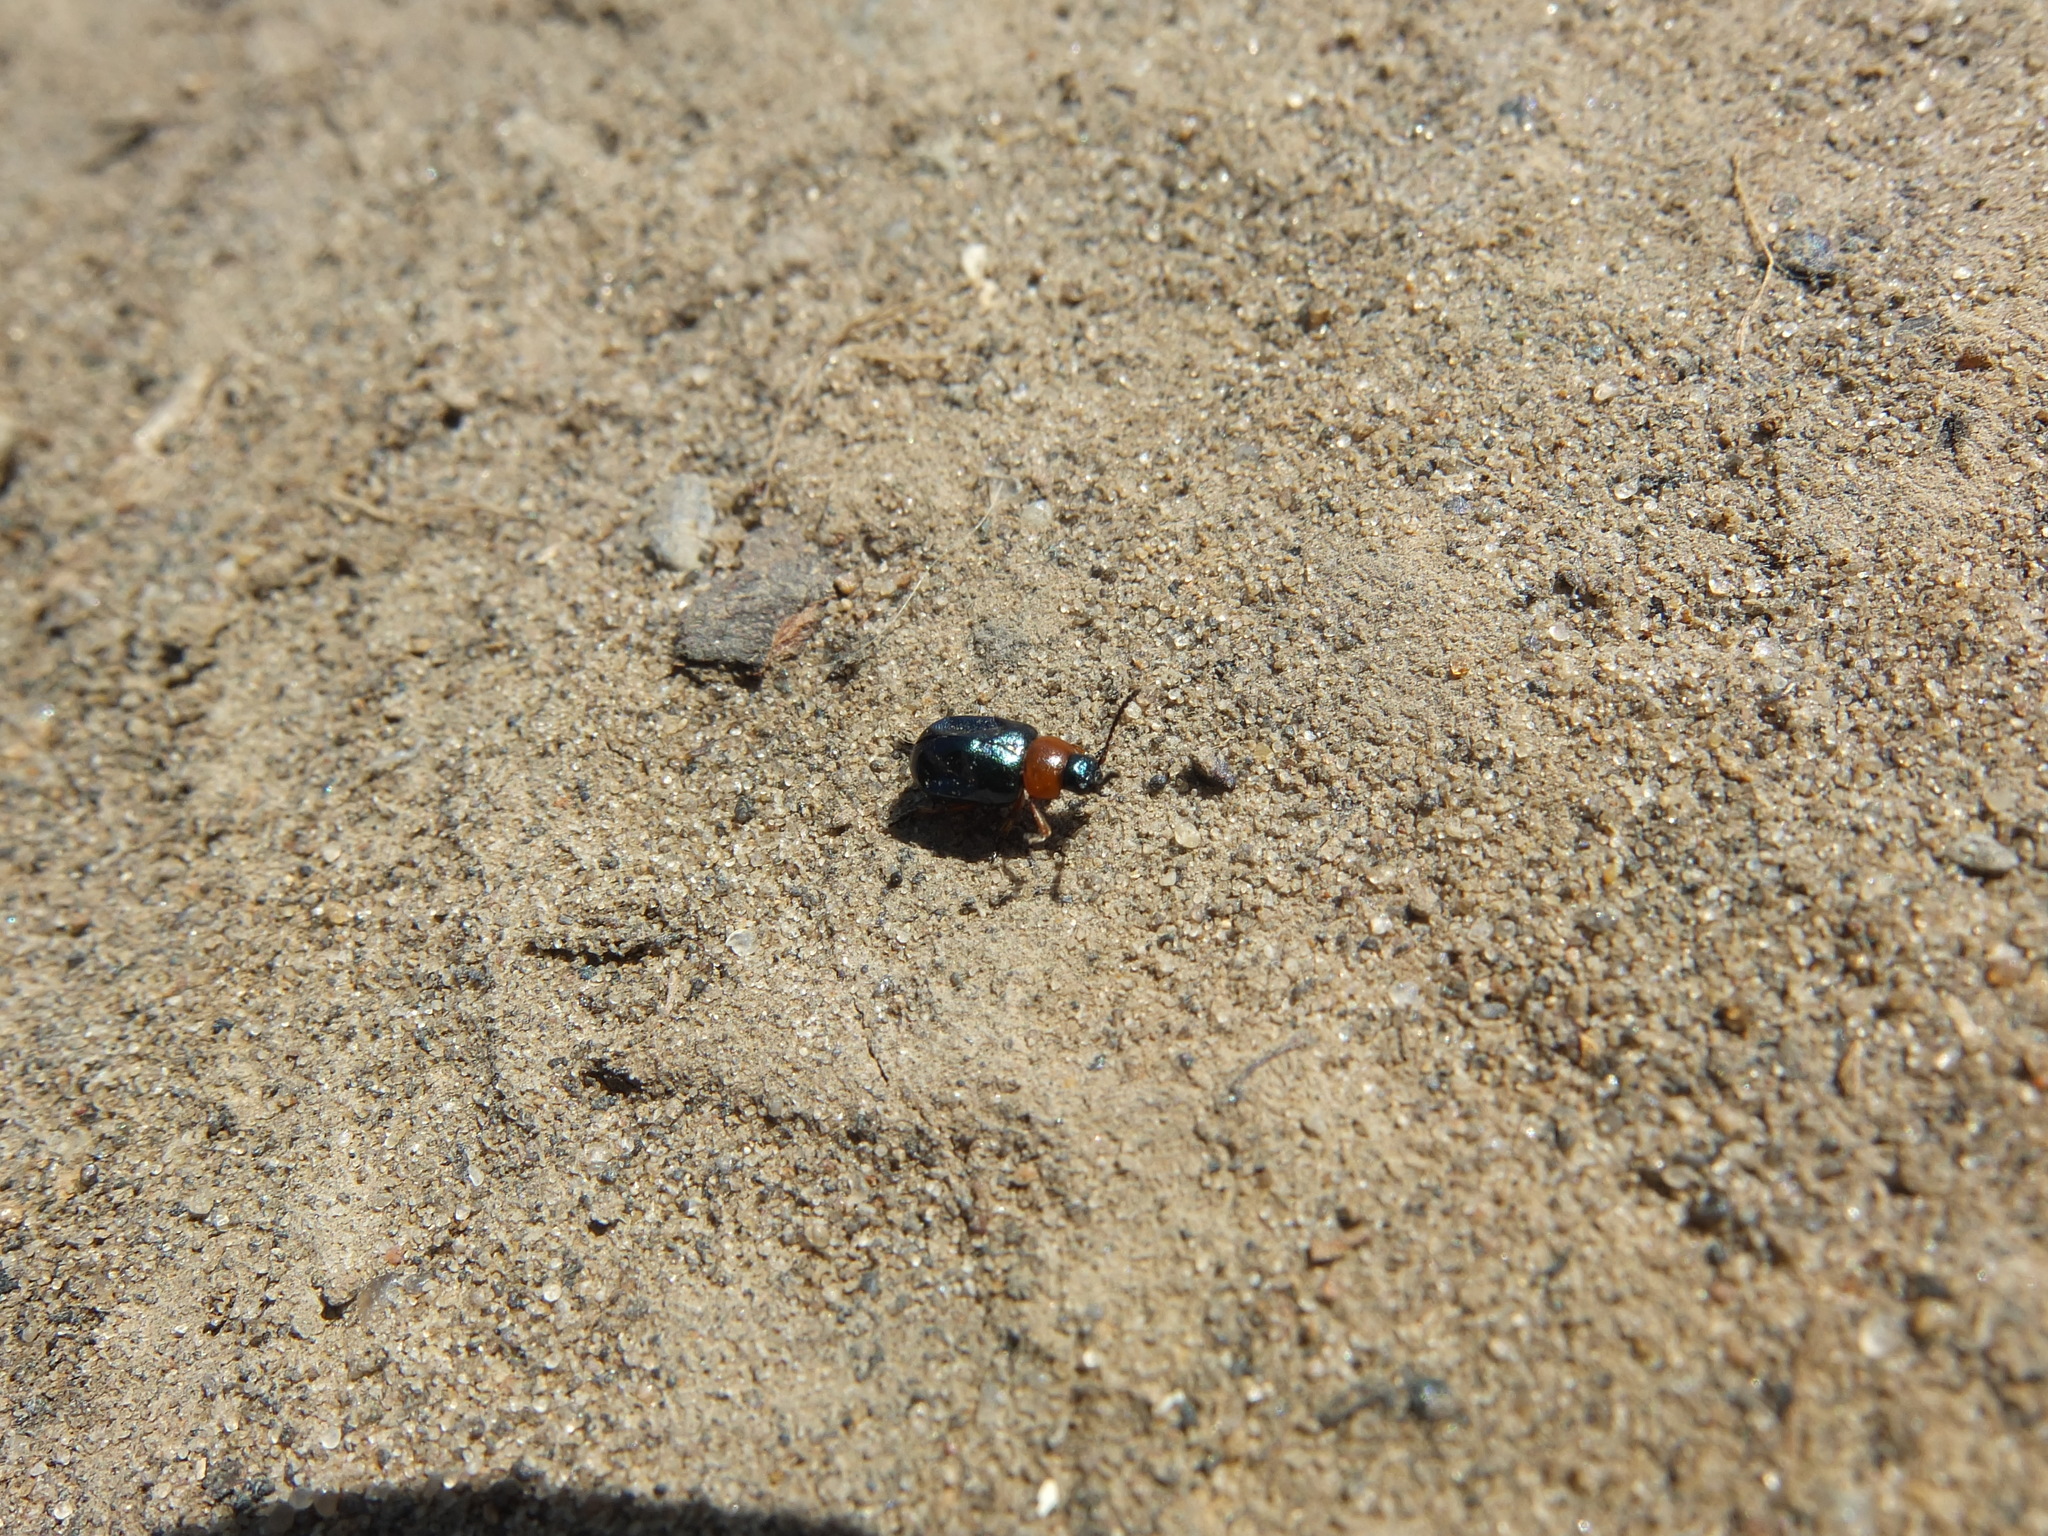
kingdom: Animalia
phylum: Arthropoda
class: Insecta
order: Coleoptera
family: Chrysomelidae
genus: Gastrophysa
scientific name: Gastrophysa polygoni
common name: Knotweed leaf beetle
